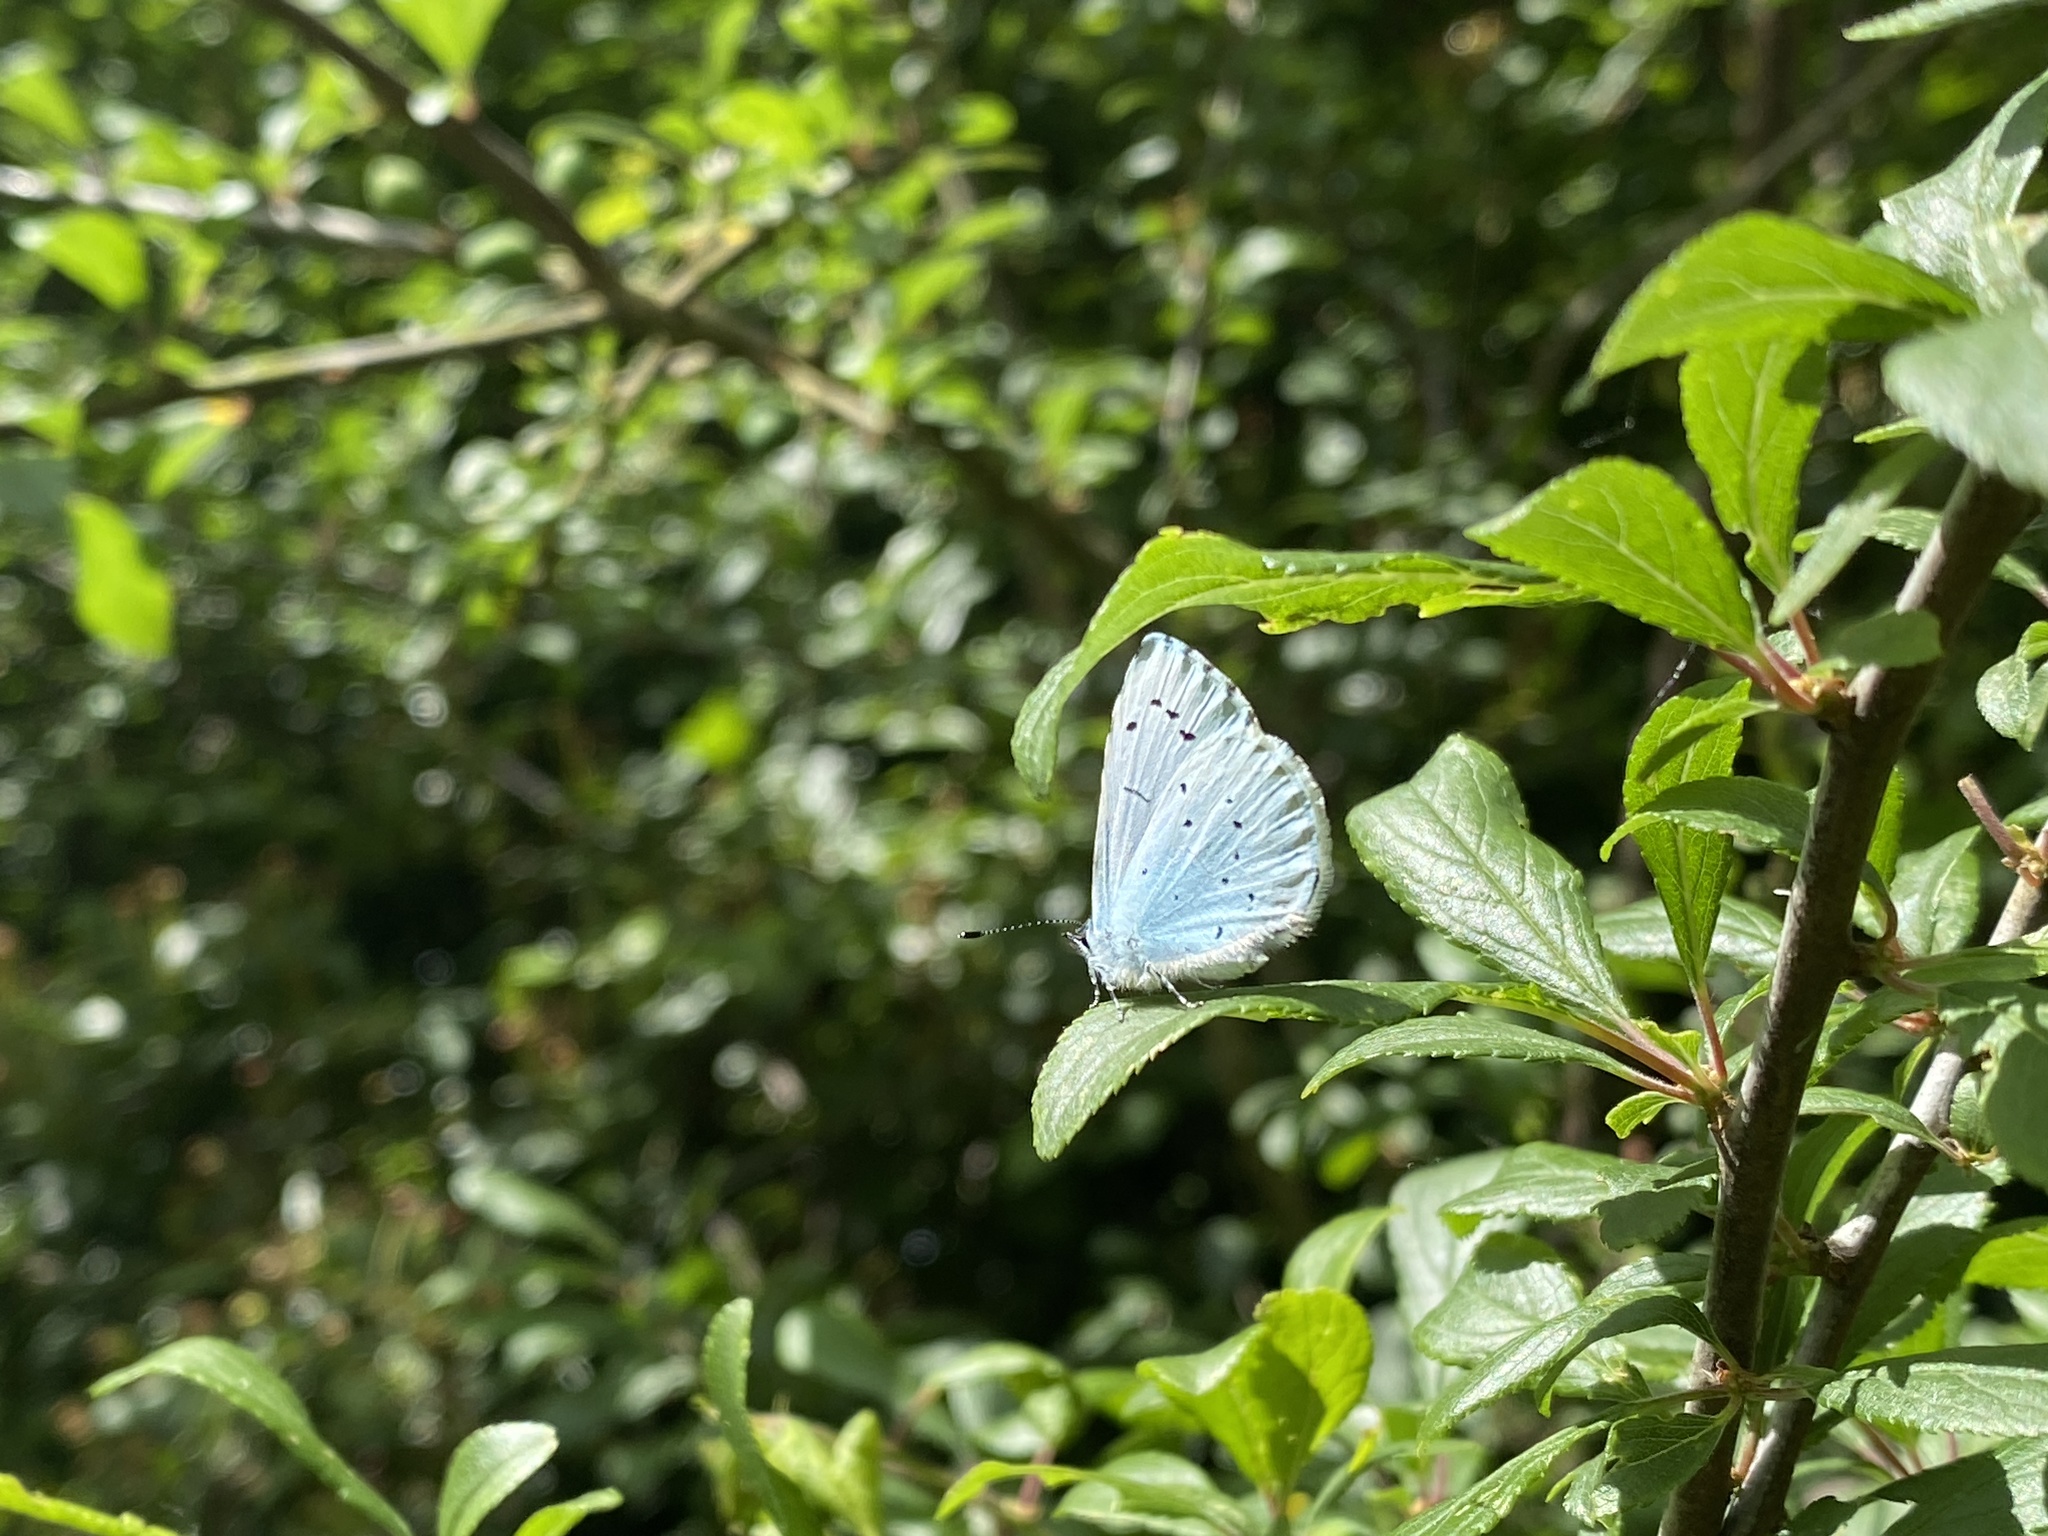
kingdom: Animalia
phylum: Arthropoda
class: Insecta
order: Lepidoptera
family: Lycaenidae
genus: Celastrina
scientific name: Celastrina argiolus
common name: Holly blue
